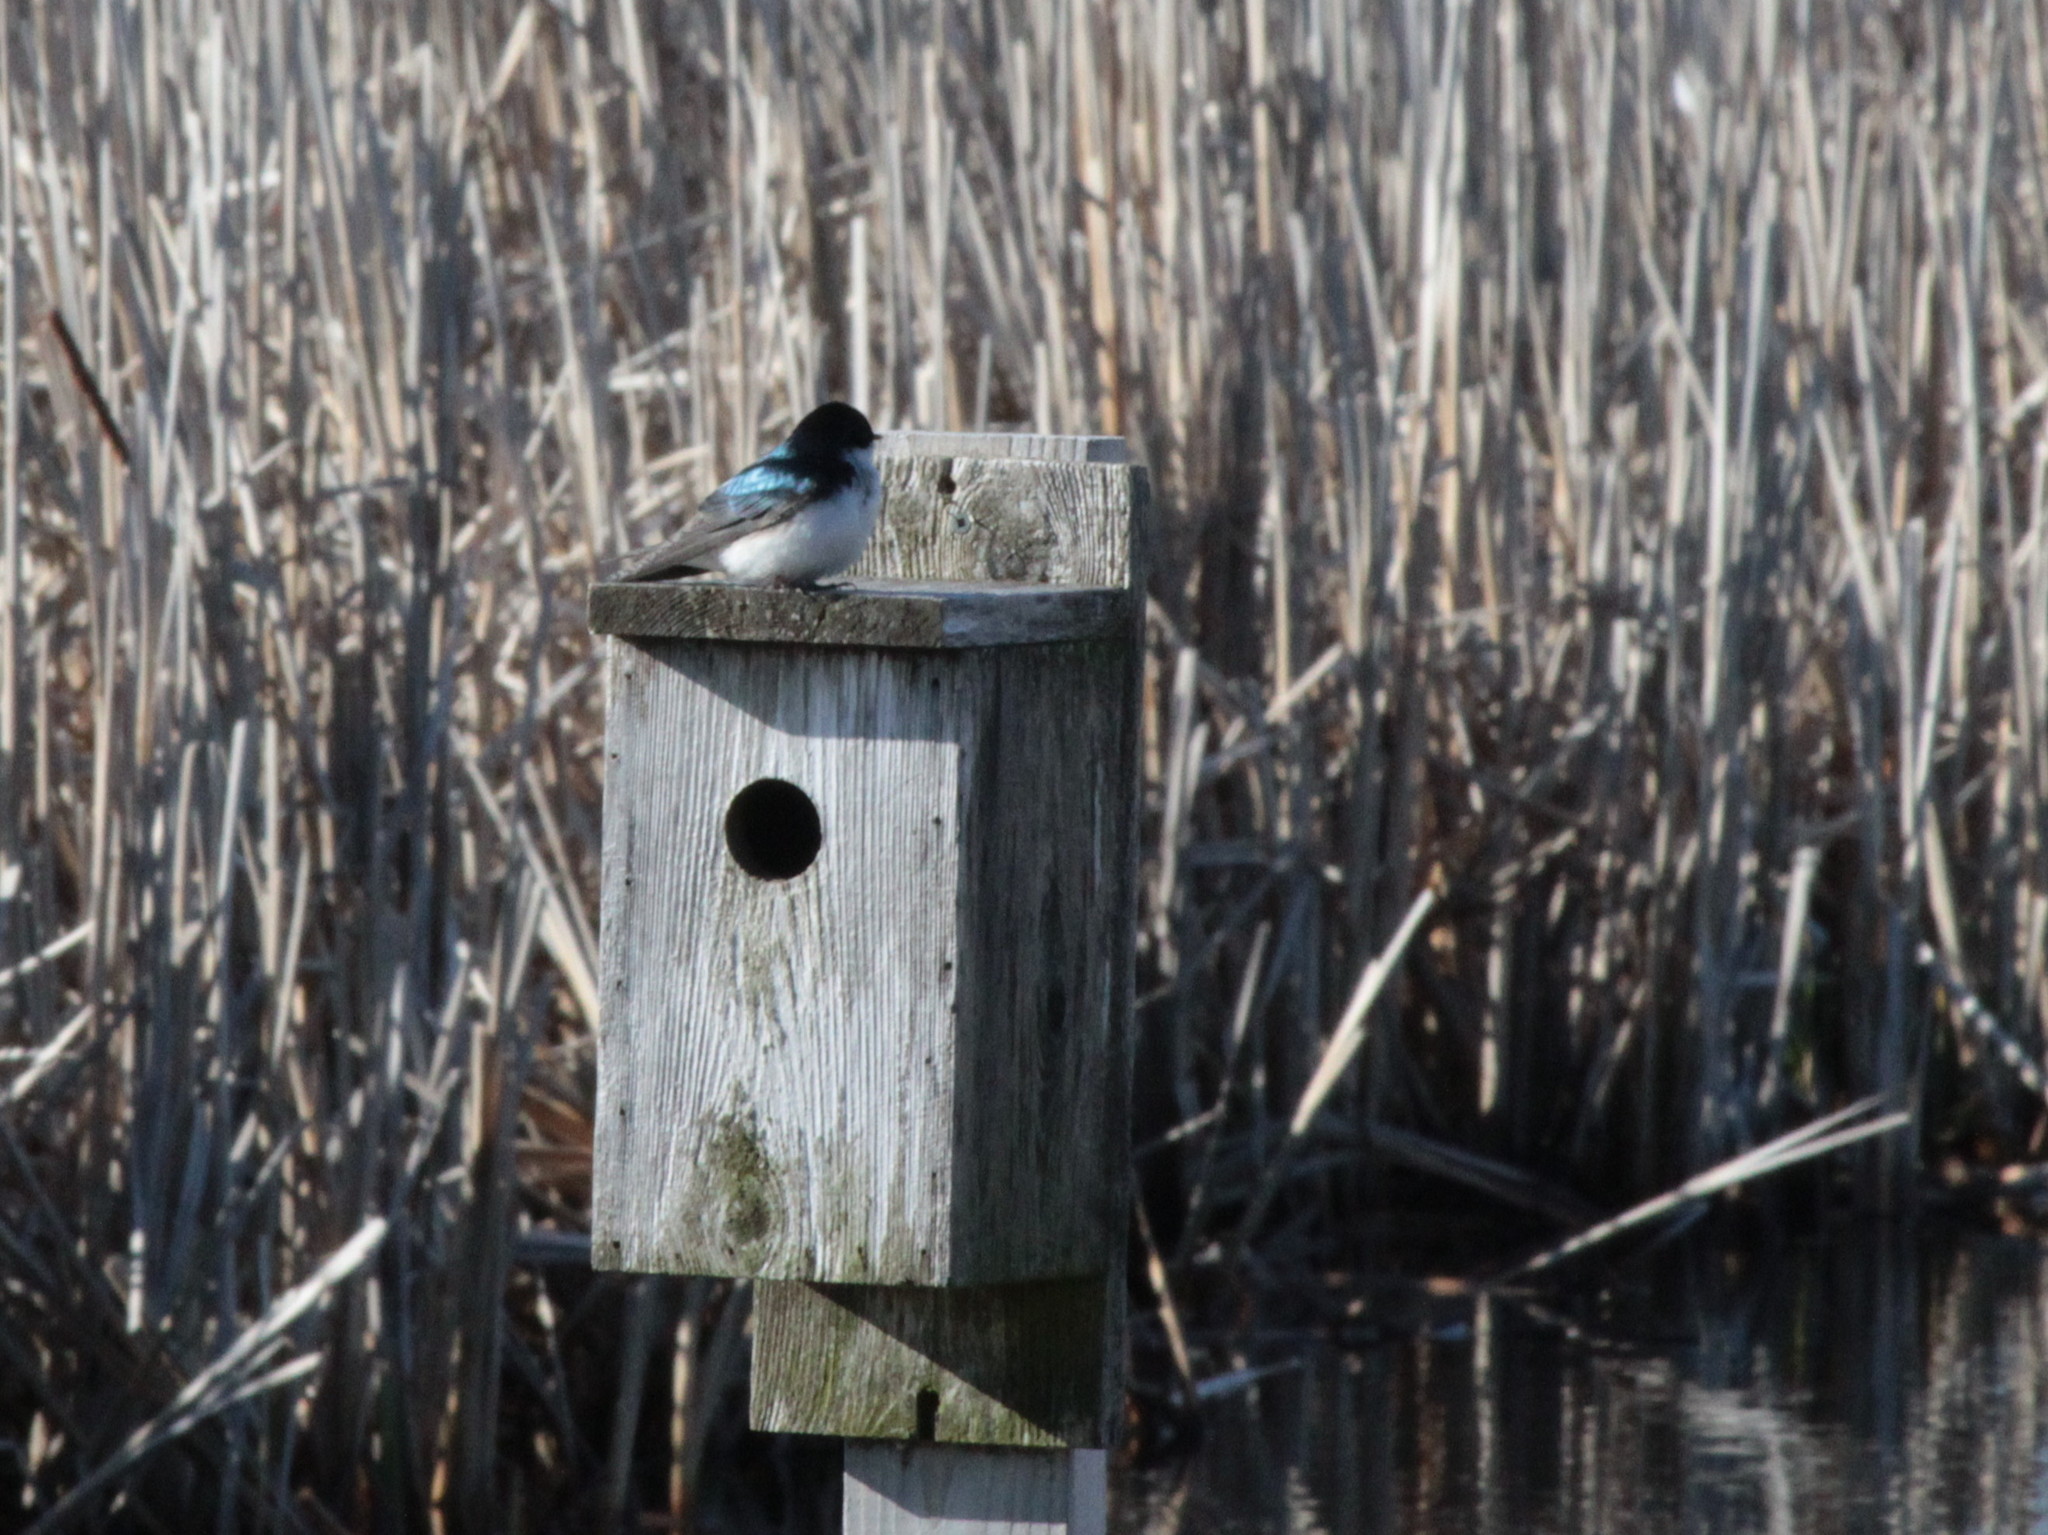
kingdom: Animalia
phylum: Chordata
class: Aves
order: Passeriformes
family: Hirundinidae
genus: Tachycineta
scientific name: Tachycineta bicolor
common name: Tree swallow
